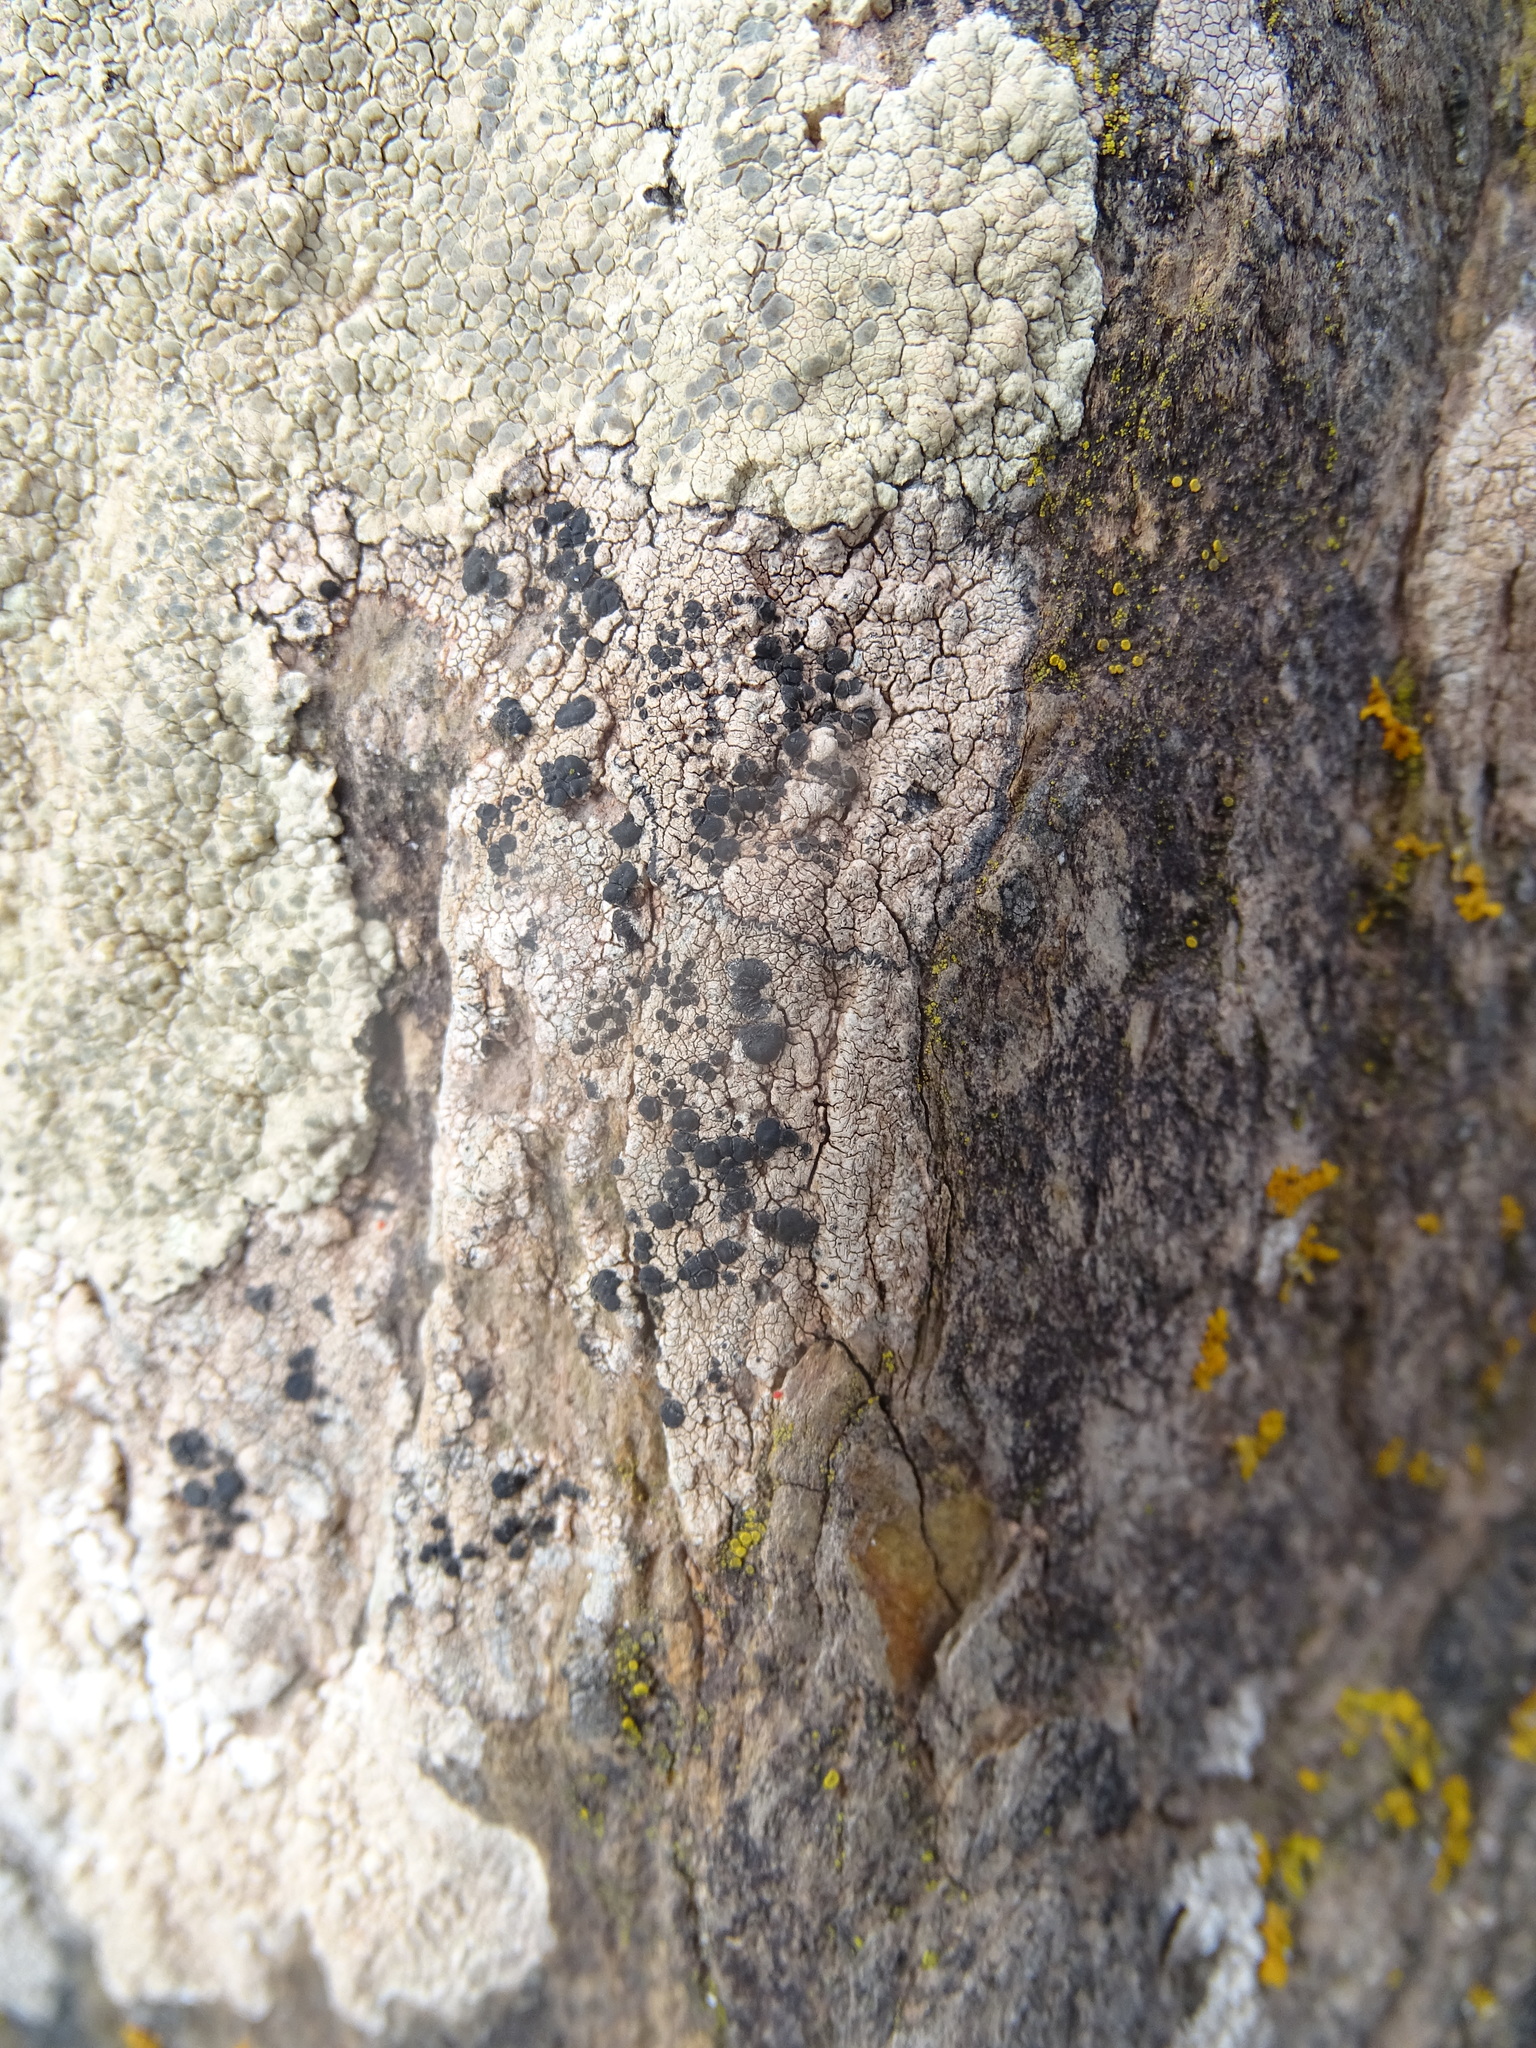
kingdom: Fungi
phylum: Ascomycota
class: Lecanoromycetes
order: Lecanorales
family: Lecanoraceae
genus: Lecidella
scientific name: Lecidella asema
